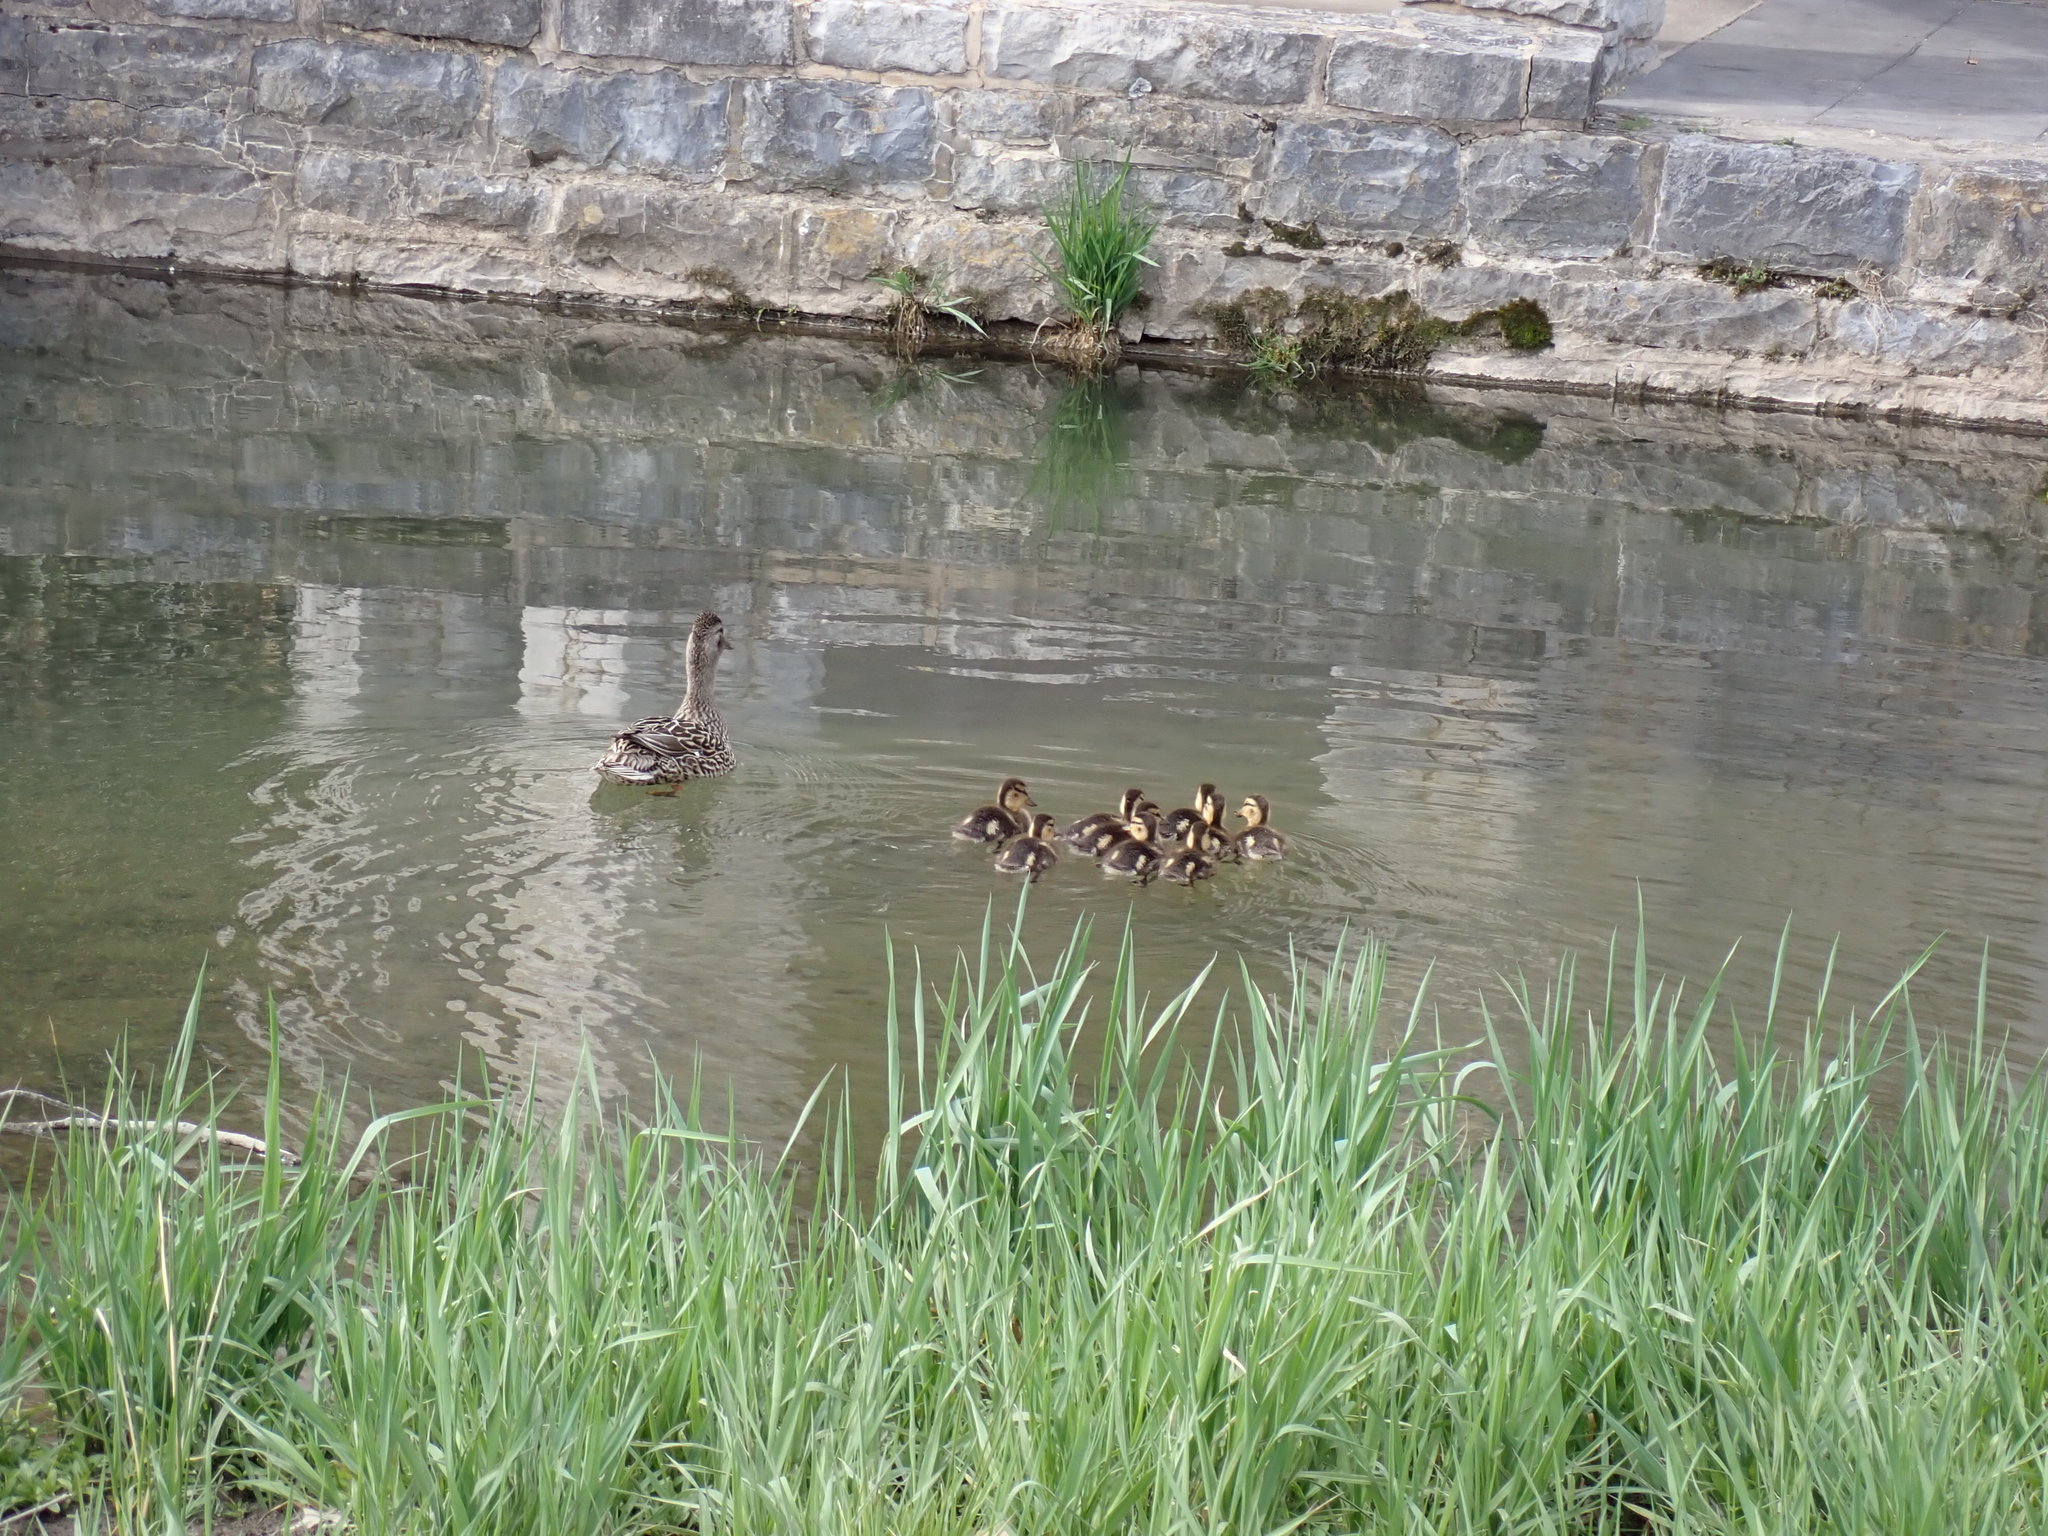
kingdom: Animalia
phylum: Chordata
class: Aves
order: Anseriformes
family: Anatidae
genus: Anas
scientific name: Anas platyrhynchos
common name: Mallard
